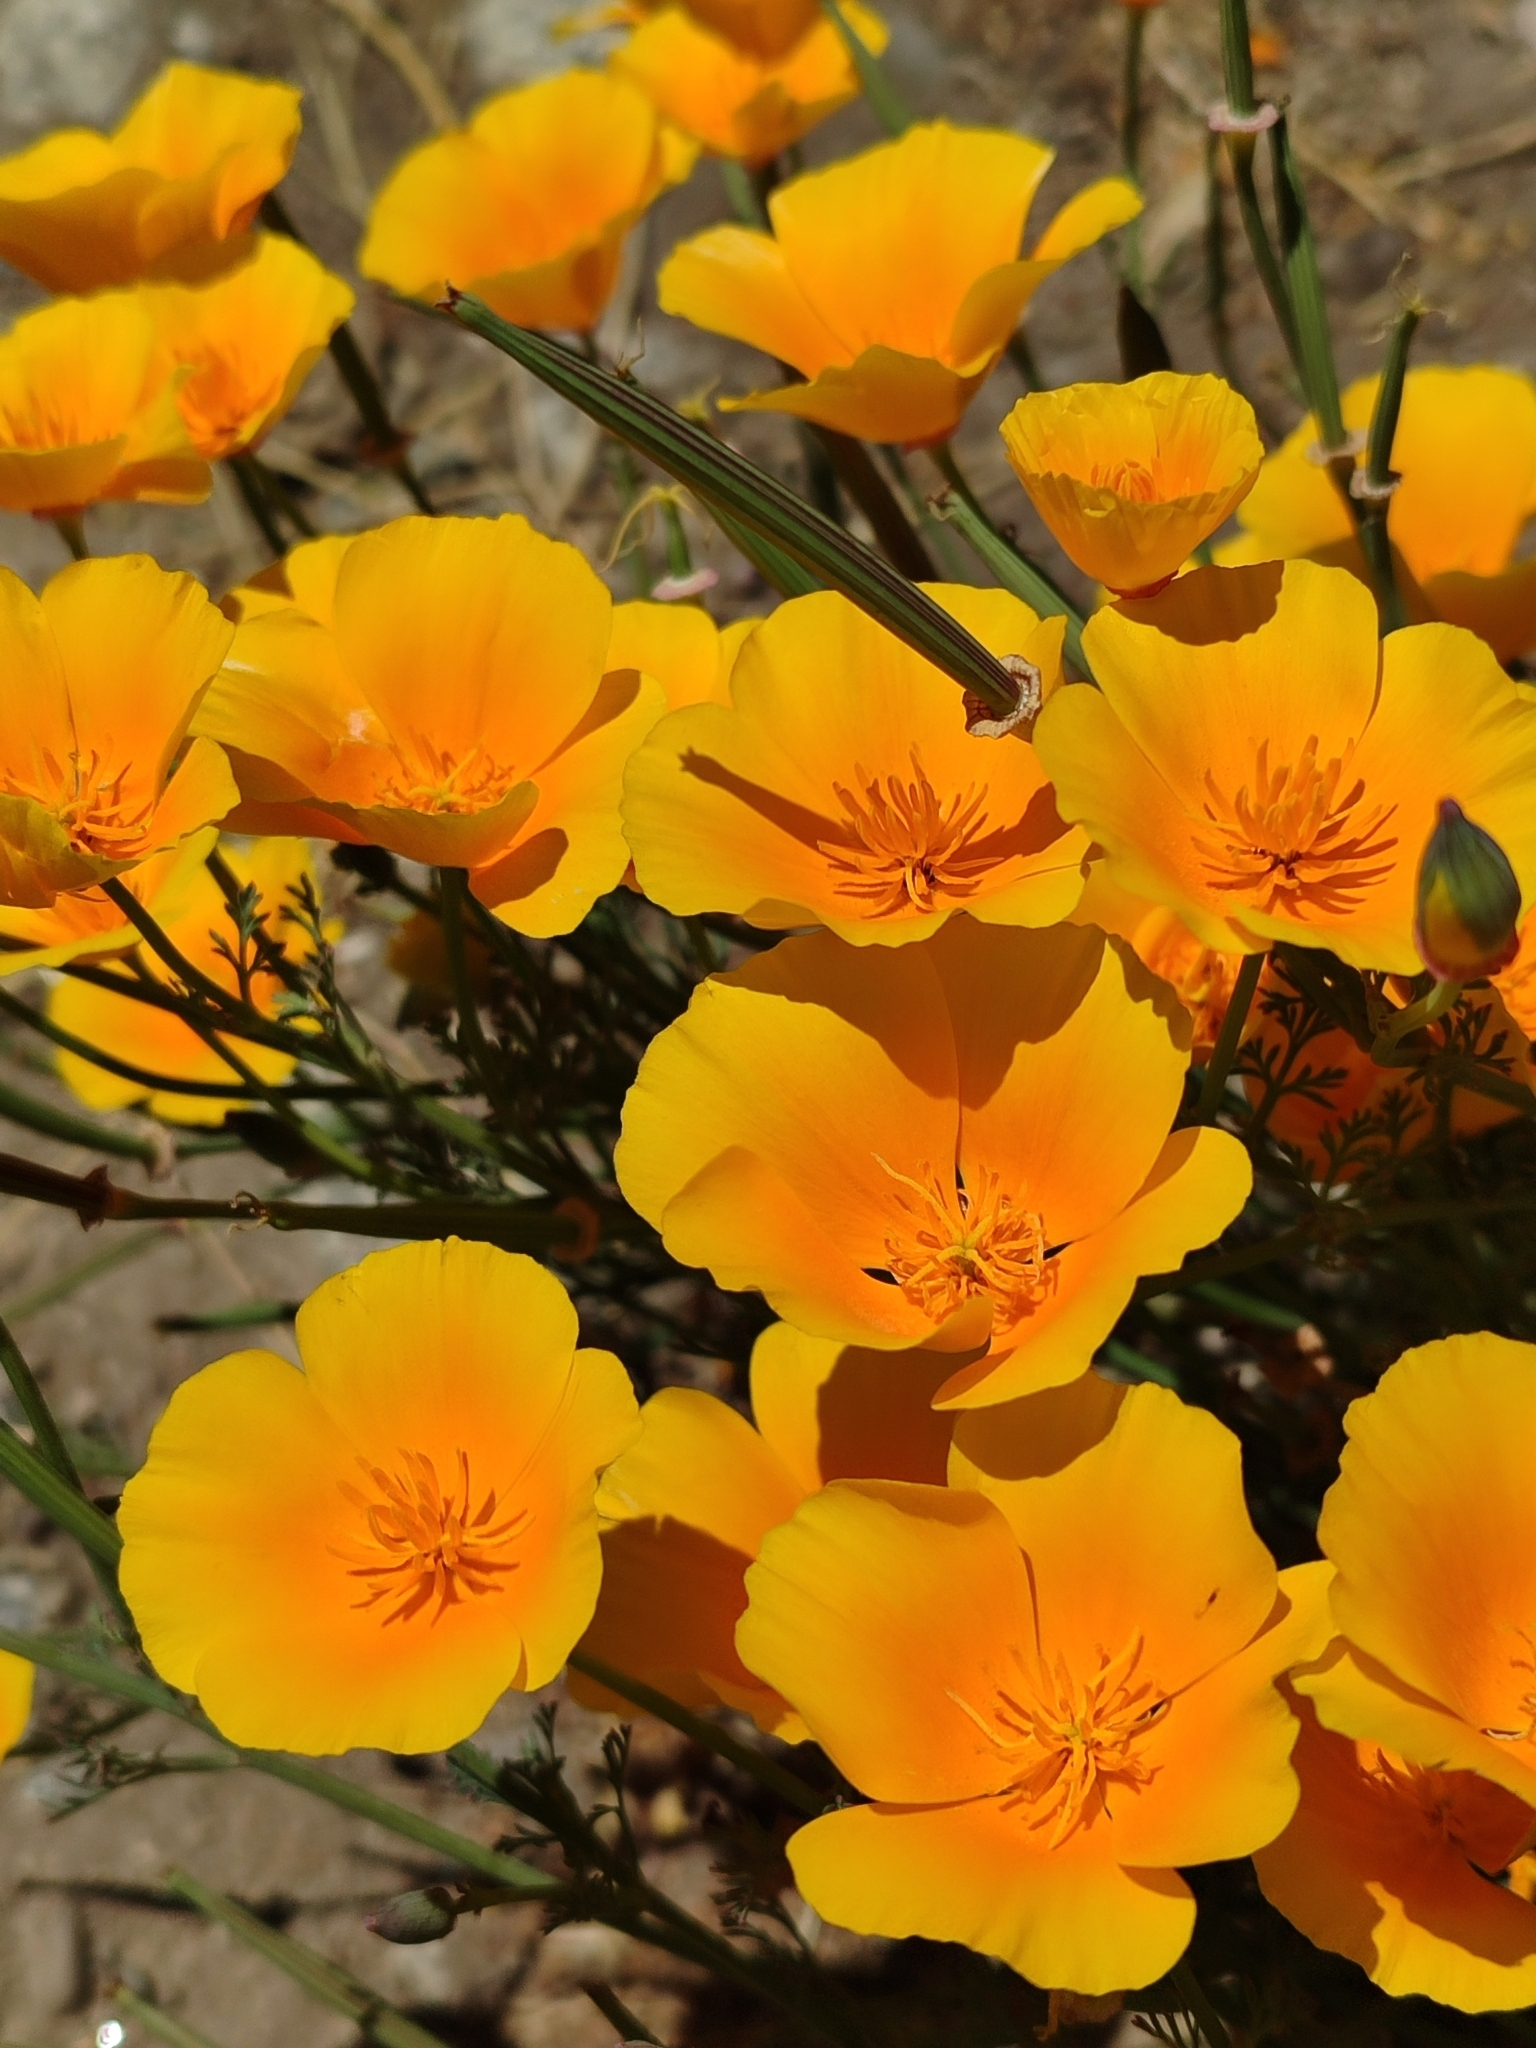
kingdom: Plantae
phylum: Tracheophyta
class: Magnoliopsida
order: Ranunculales
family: Papaveraceae
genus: Eschscholzia
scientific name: Eschscholzia californica
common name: California poppy
